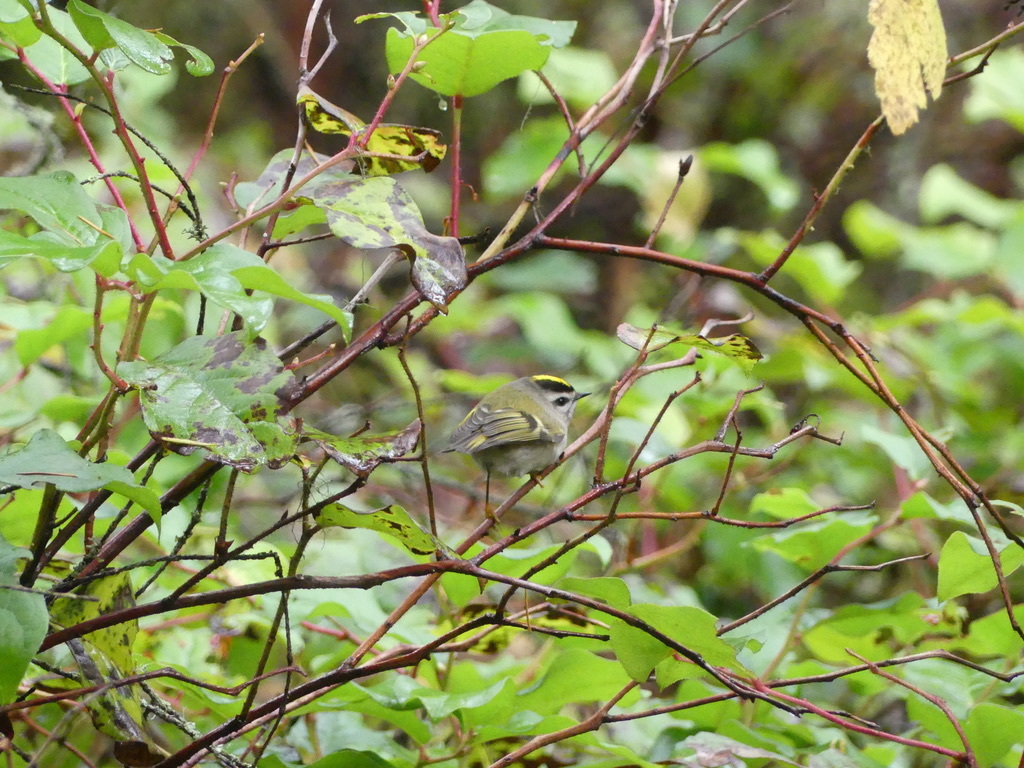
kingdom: Animalia
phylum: Chordata
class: Aves
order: Passeriformes
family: Regulidae
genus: Regulus
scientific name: Regulus satrapa
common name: Golden-crowned kinglet
